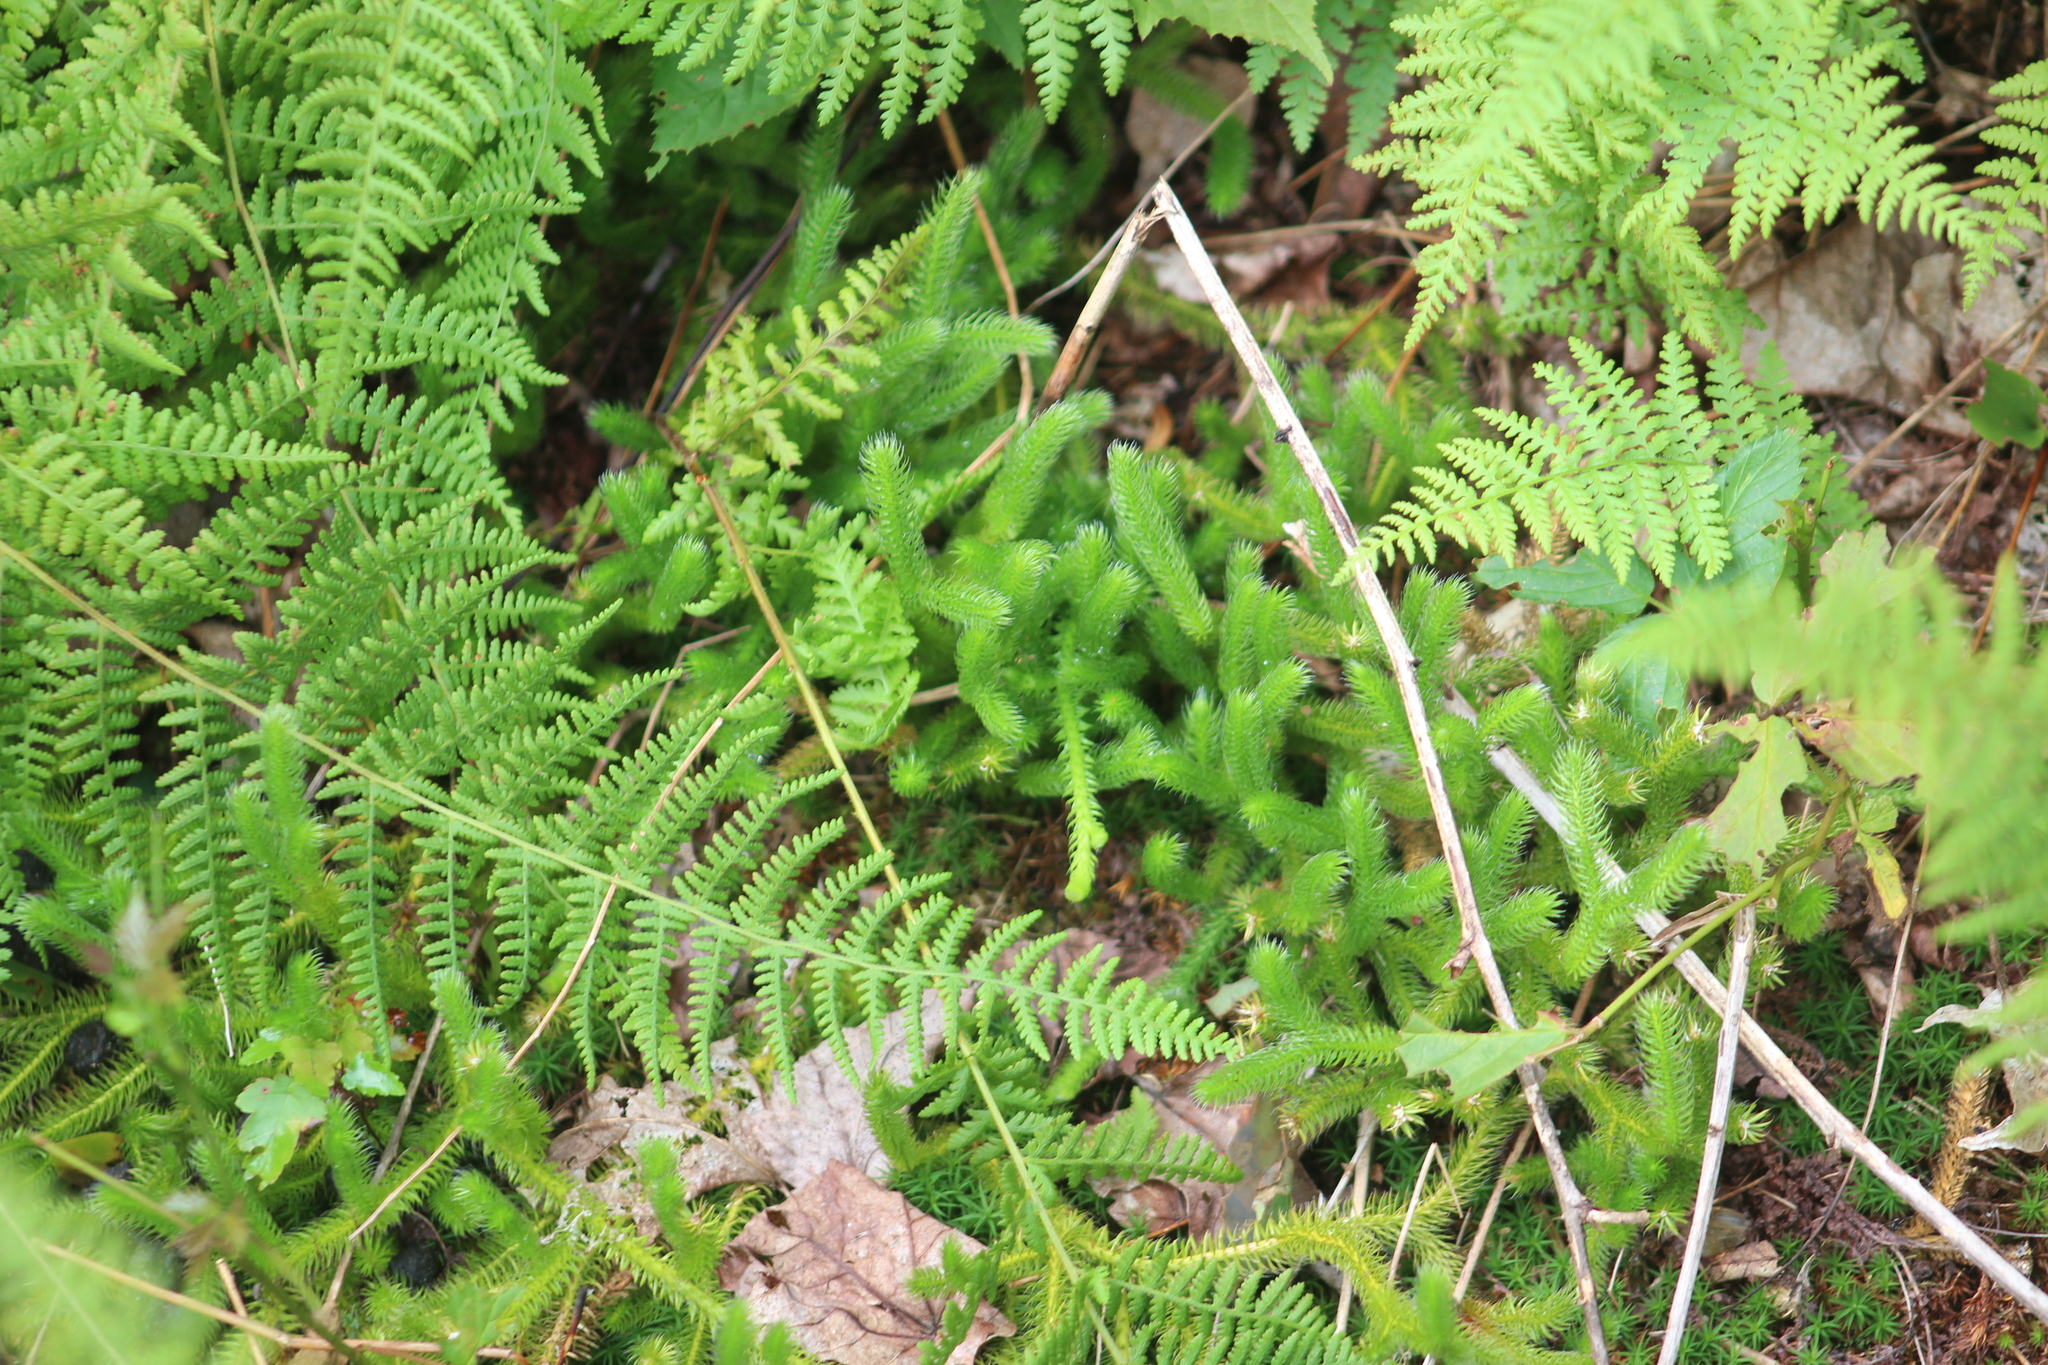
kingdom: Plantae
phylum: Tracheophyta
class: Lycopodiopsida
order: Lycopodiales
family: Lycopodiaceae
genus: Lycopodium
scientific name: Lycopodium clavatum
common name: Stag's-horn clubmoss
